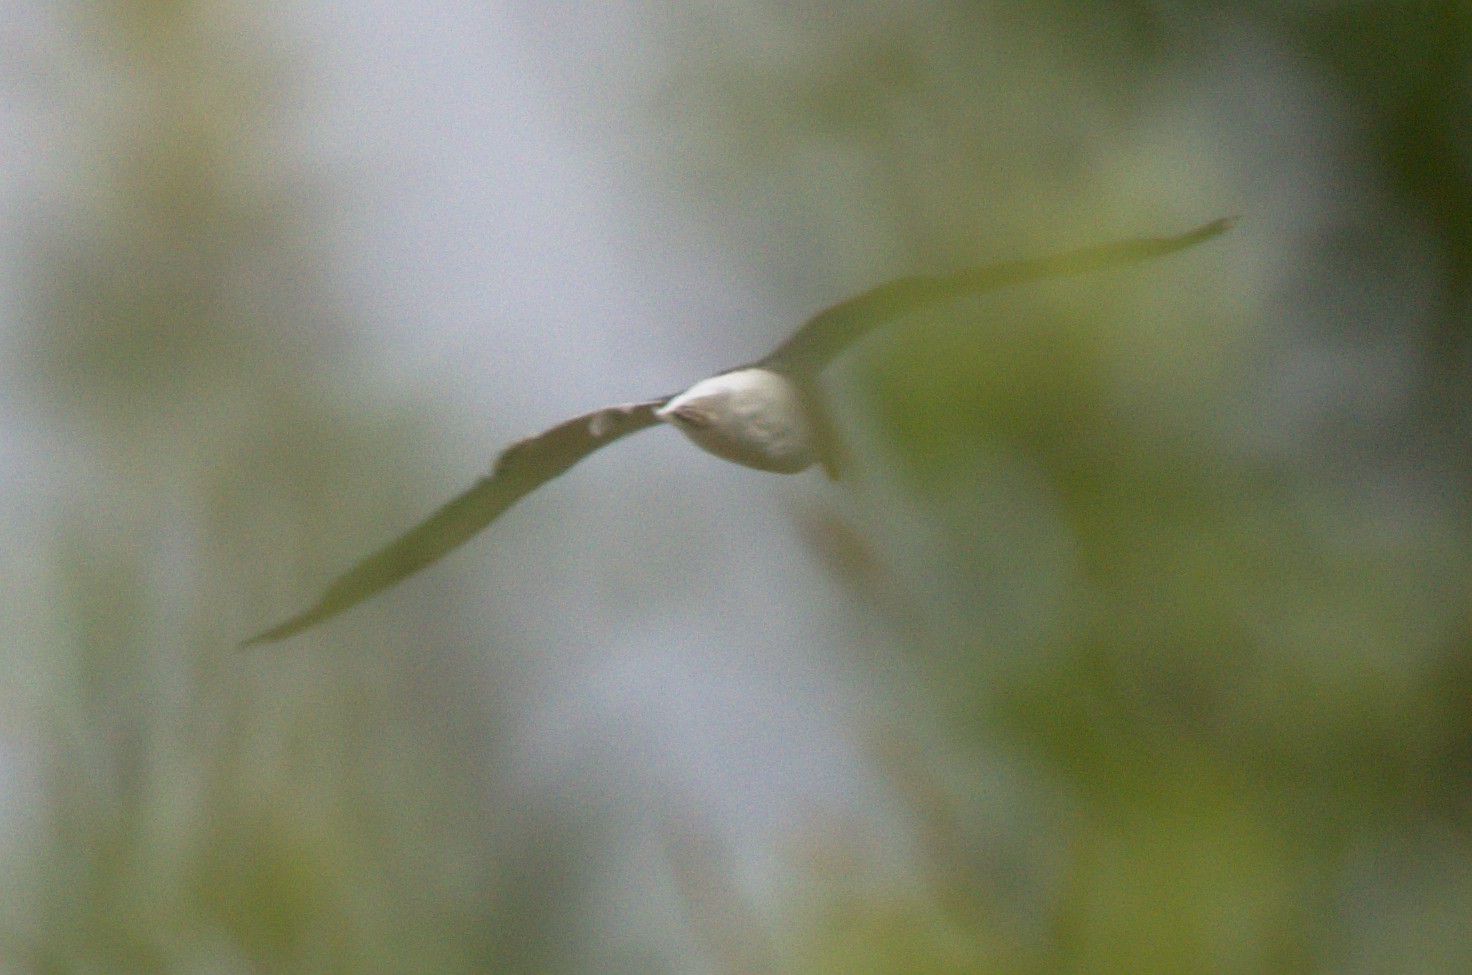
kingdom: Animalia
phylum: Chordata
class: Aves
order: Charadriiformes
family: Laridae
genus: Larus
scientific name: Larus dominicanus
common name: Kelp gull
